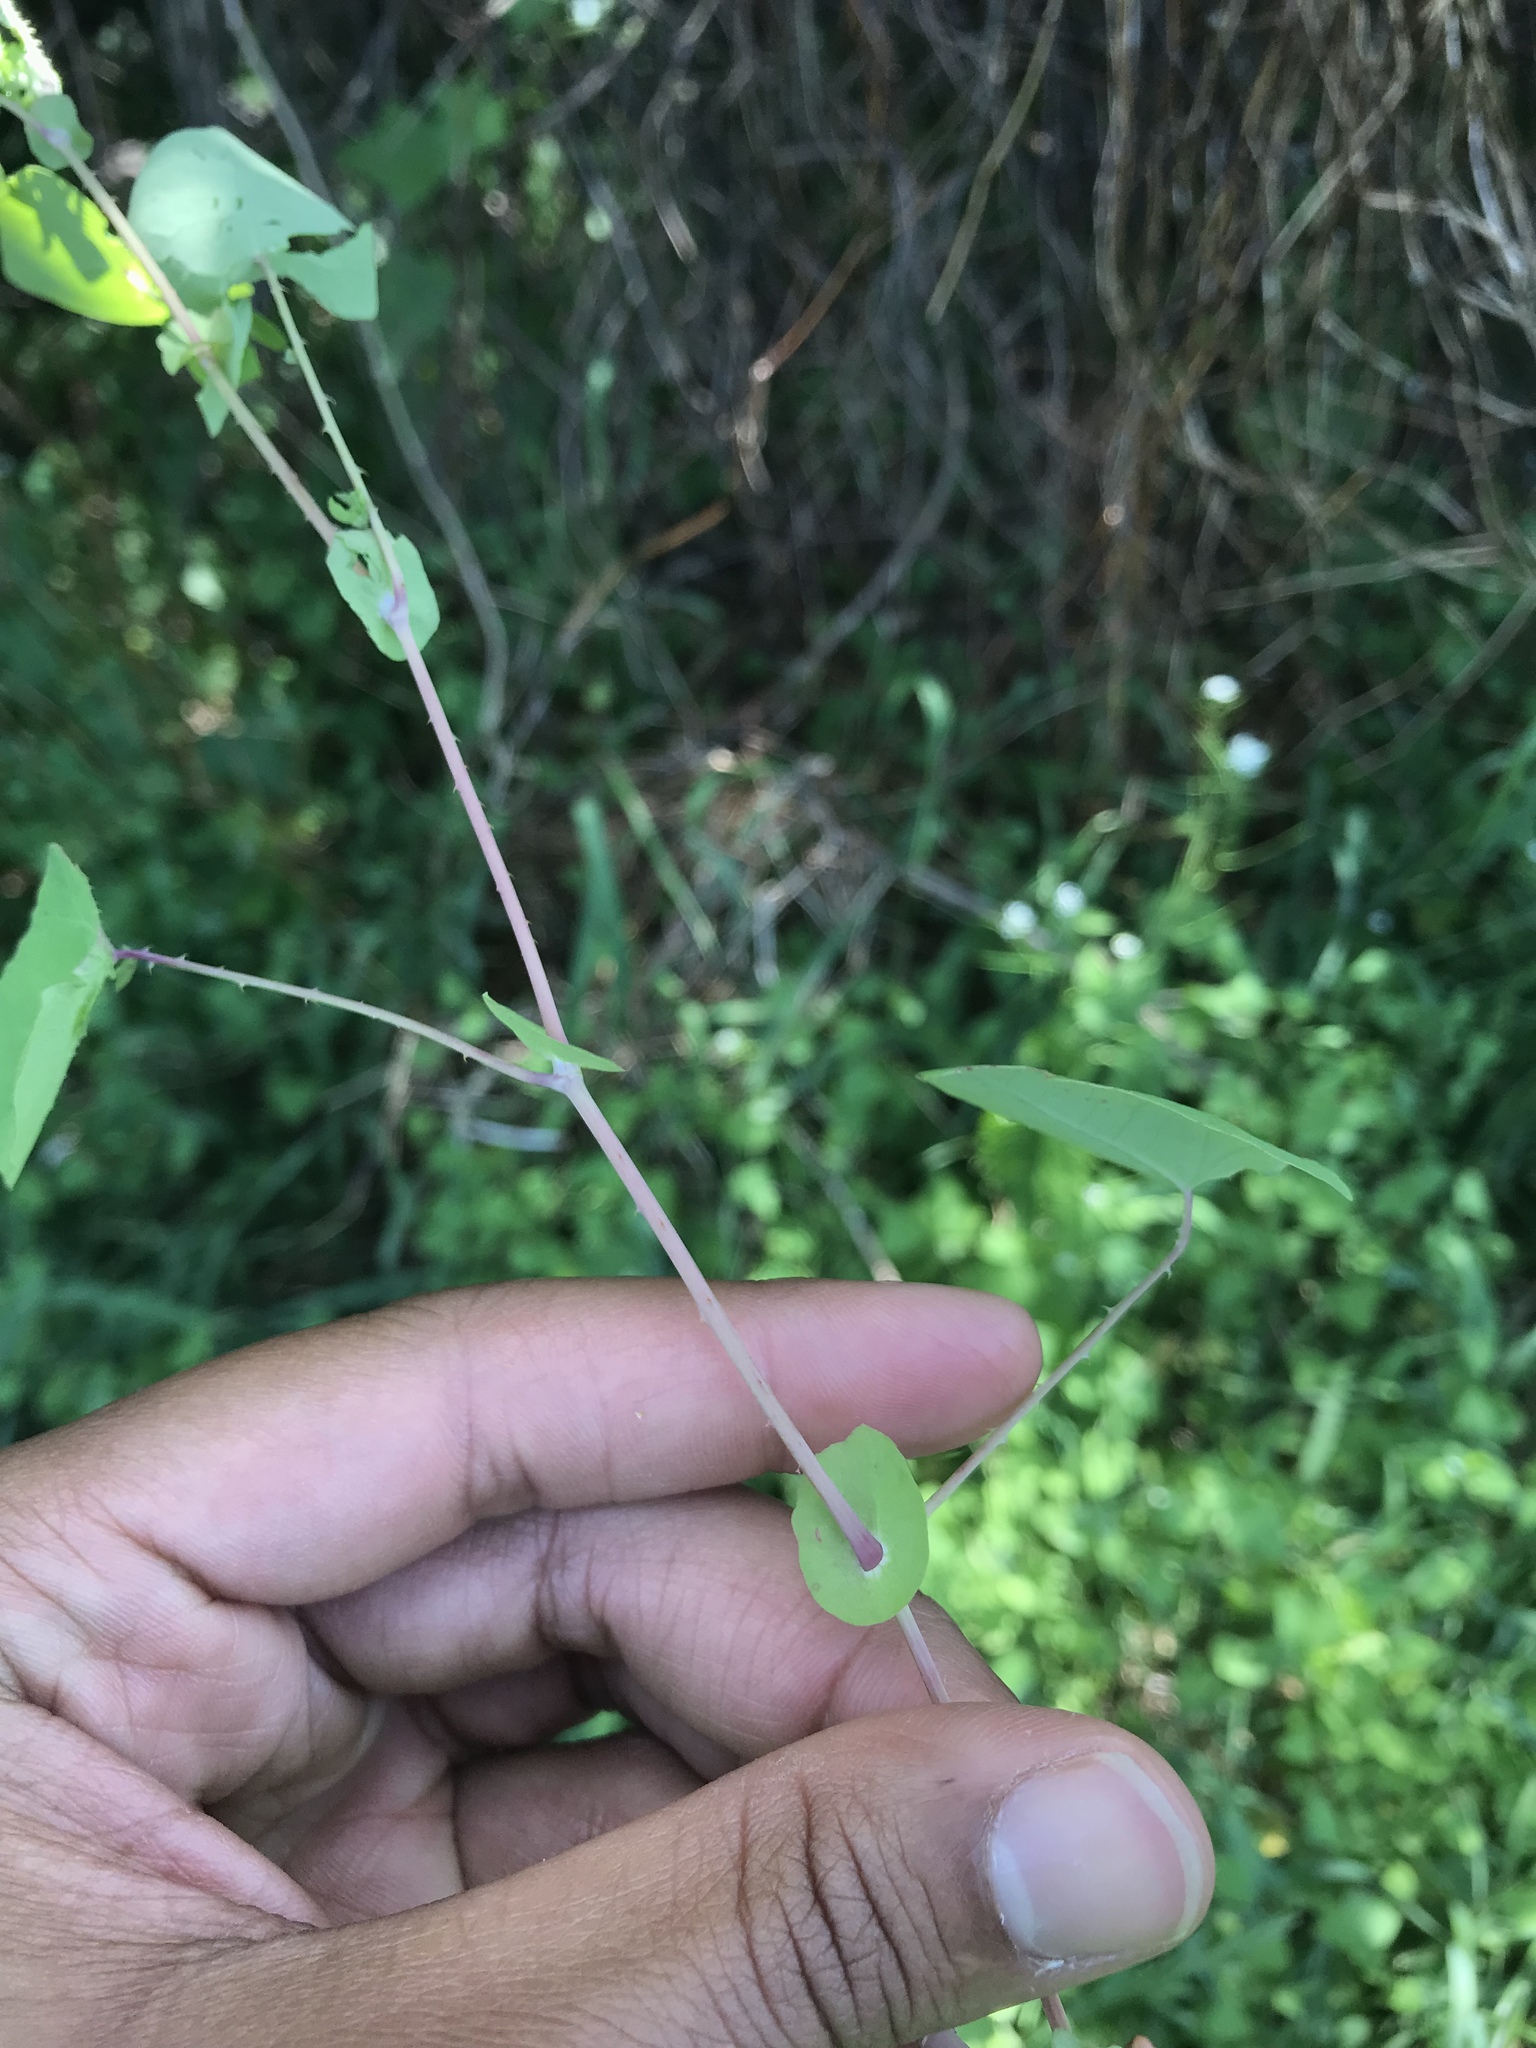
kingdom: Plantae
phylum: Tracheophyta
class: Magnoliopsida
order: Caryophyllales
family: Polygonaceae
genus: Persicaria
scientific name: Persicaria perfoliata
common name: Asiatic tearthumb
